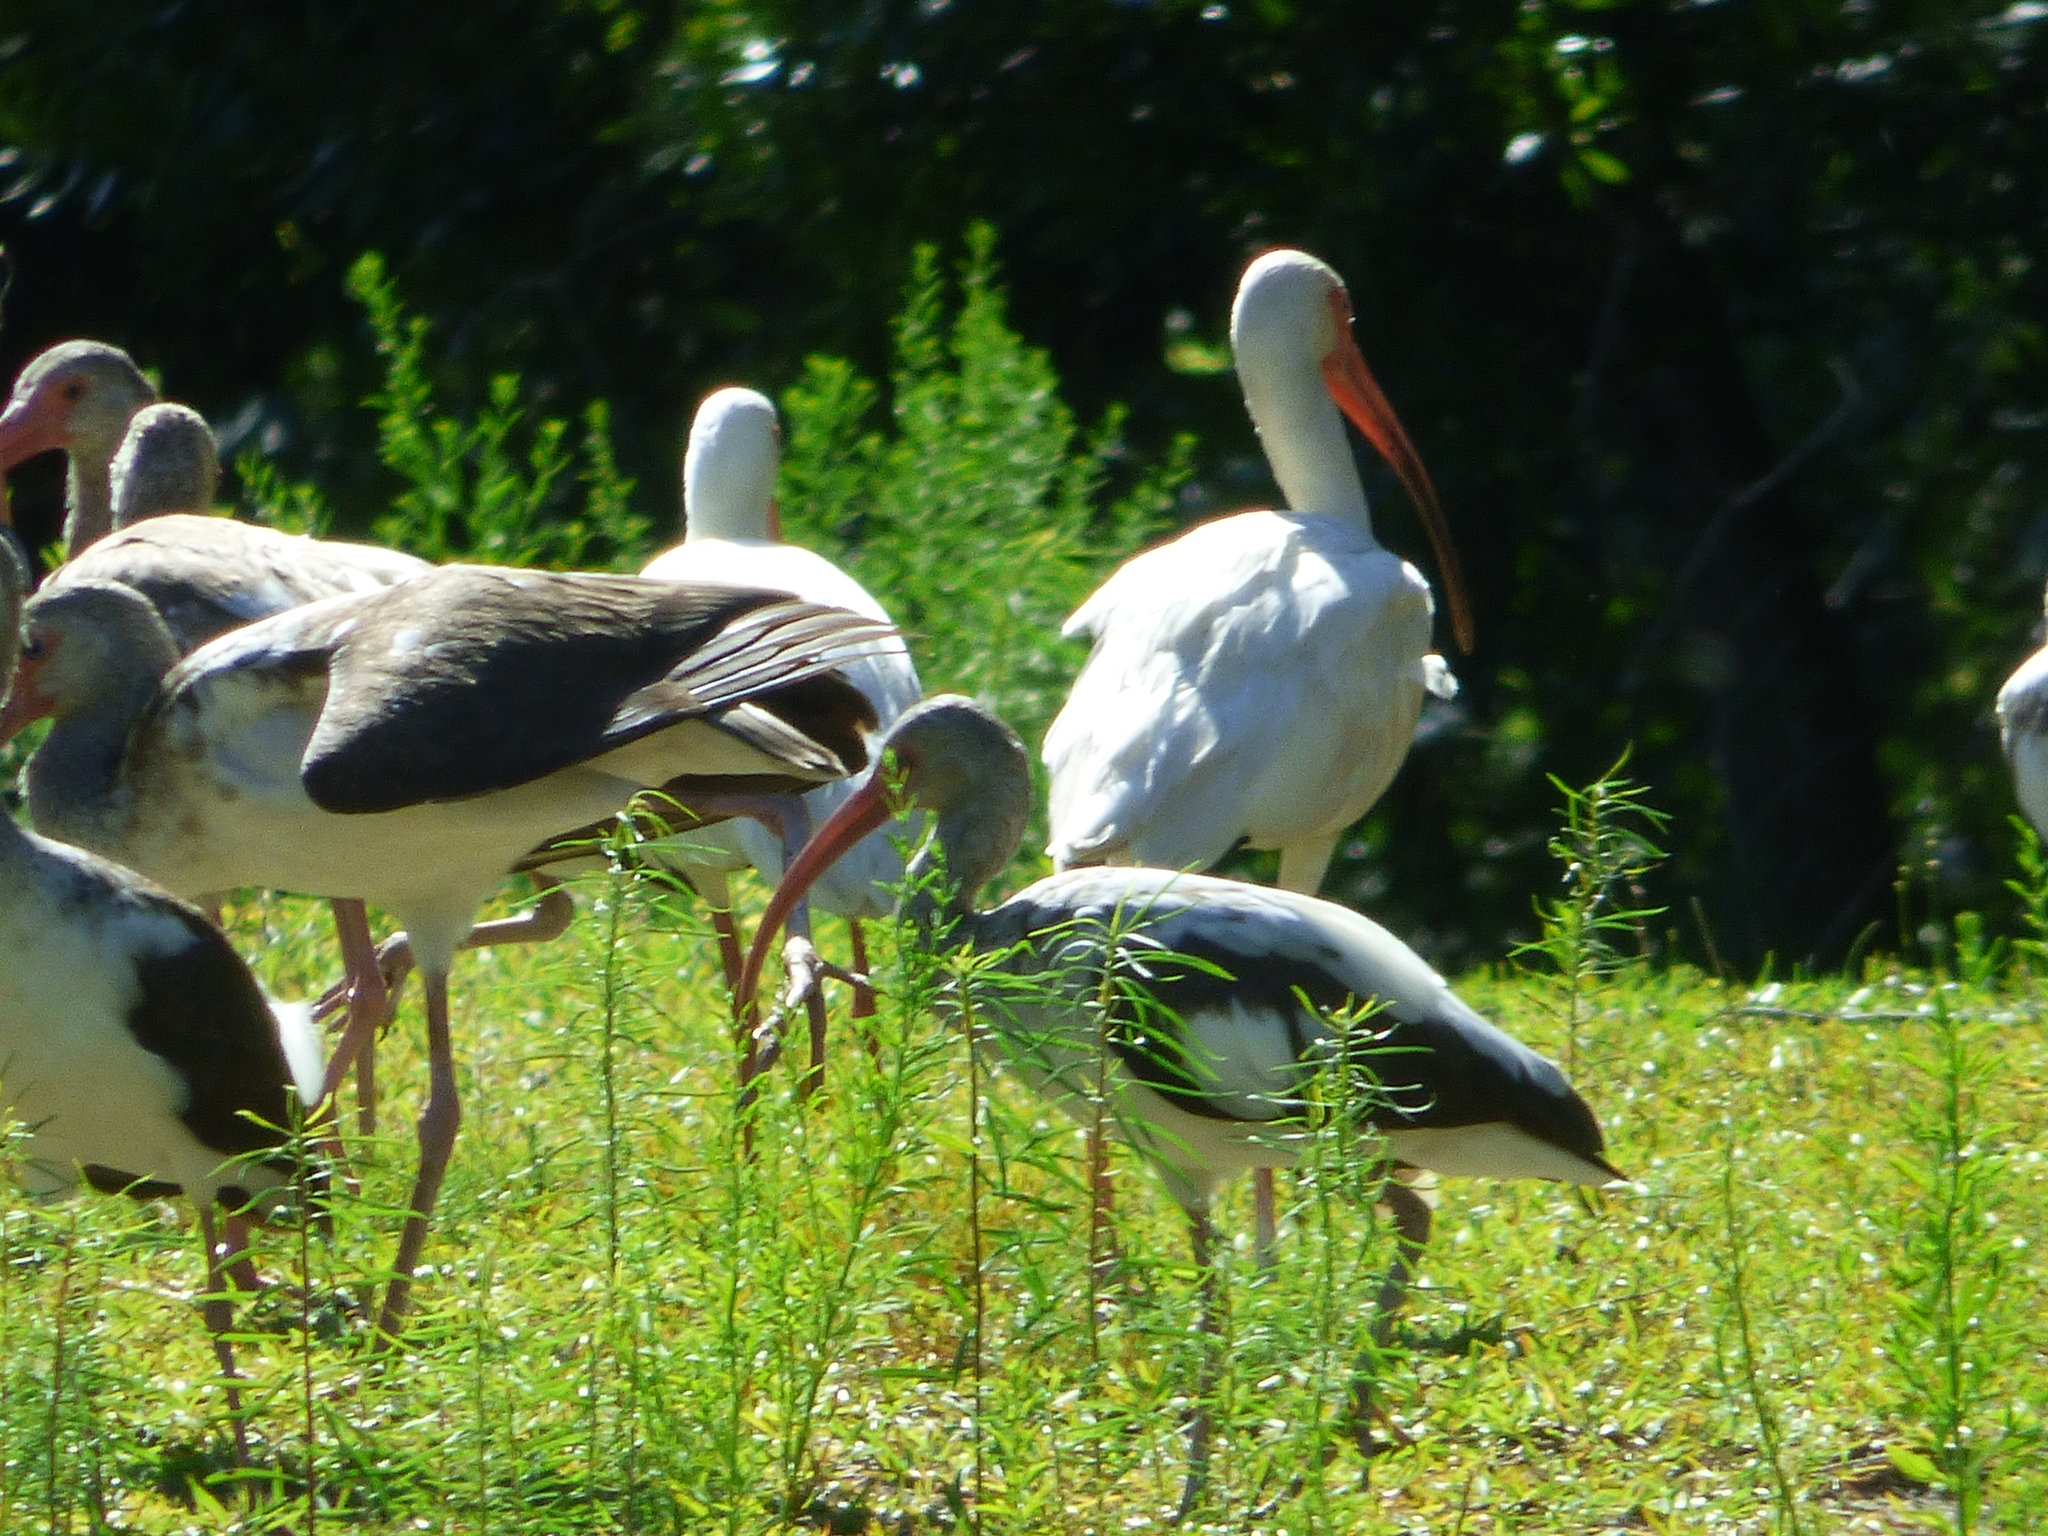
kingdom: Animalia
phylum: Chordata
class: Aves
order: Pelecaniformes
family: Threskiornithidae
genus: Eudocimus
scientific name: Eudocimus albus
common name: White ibis
